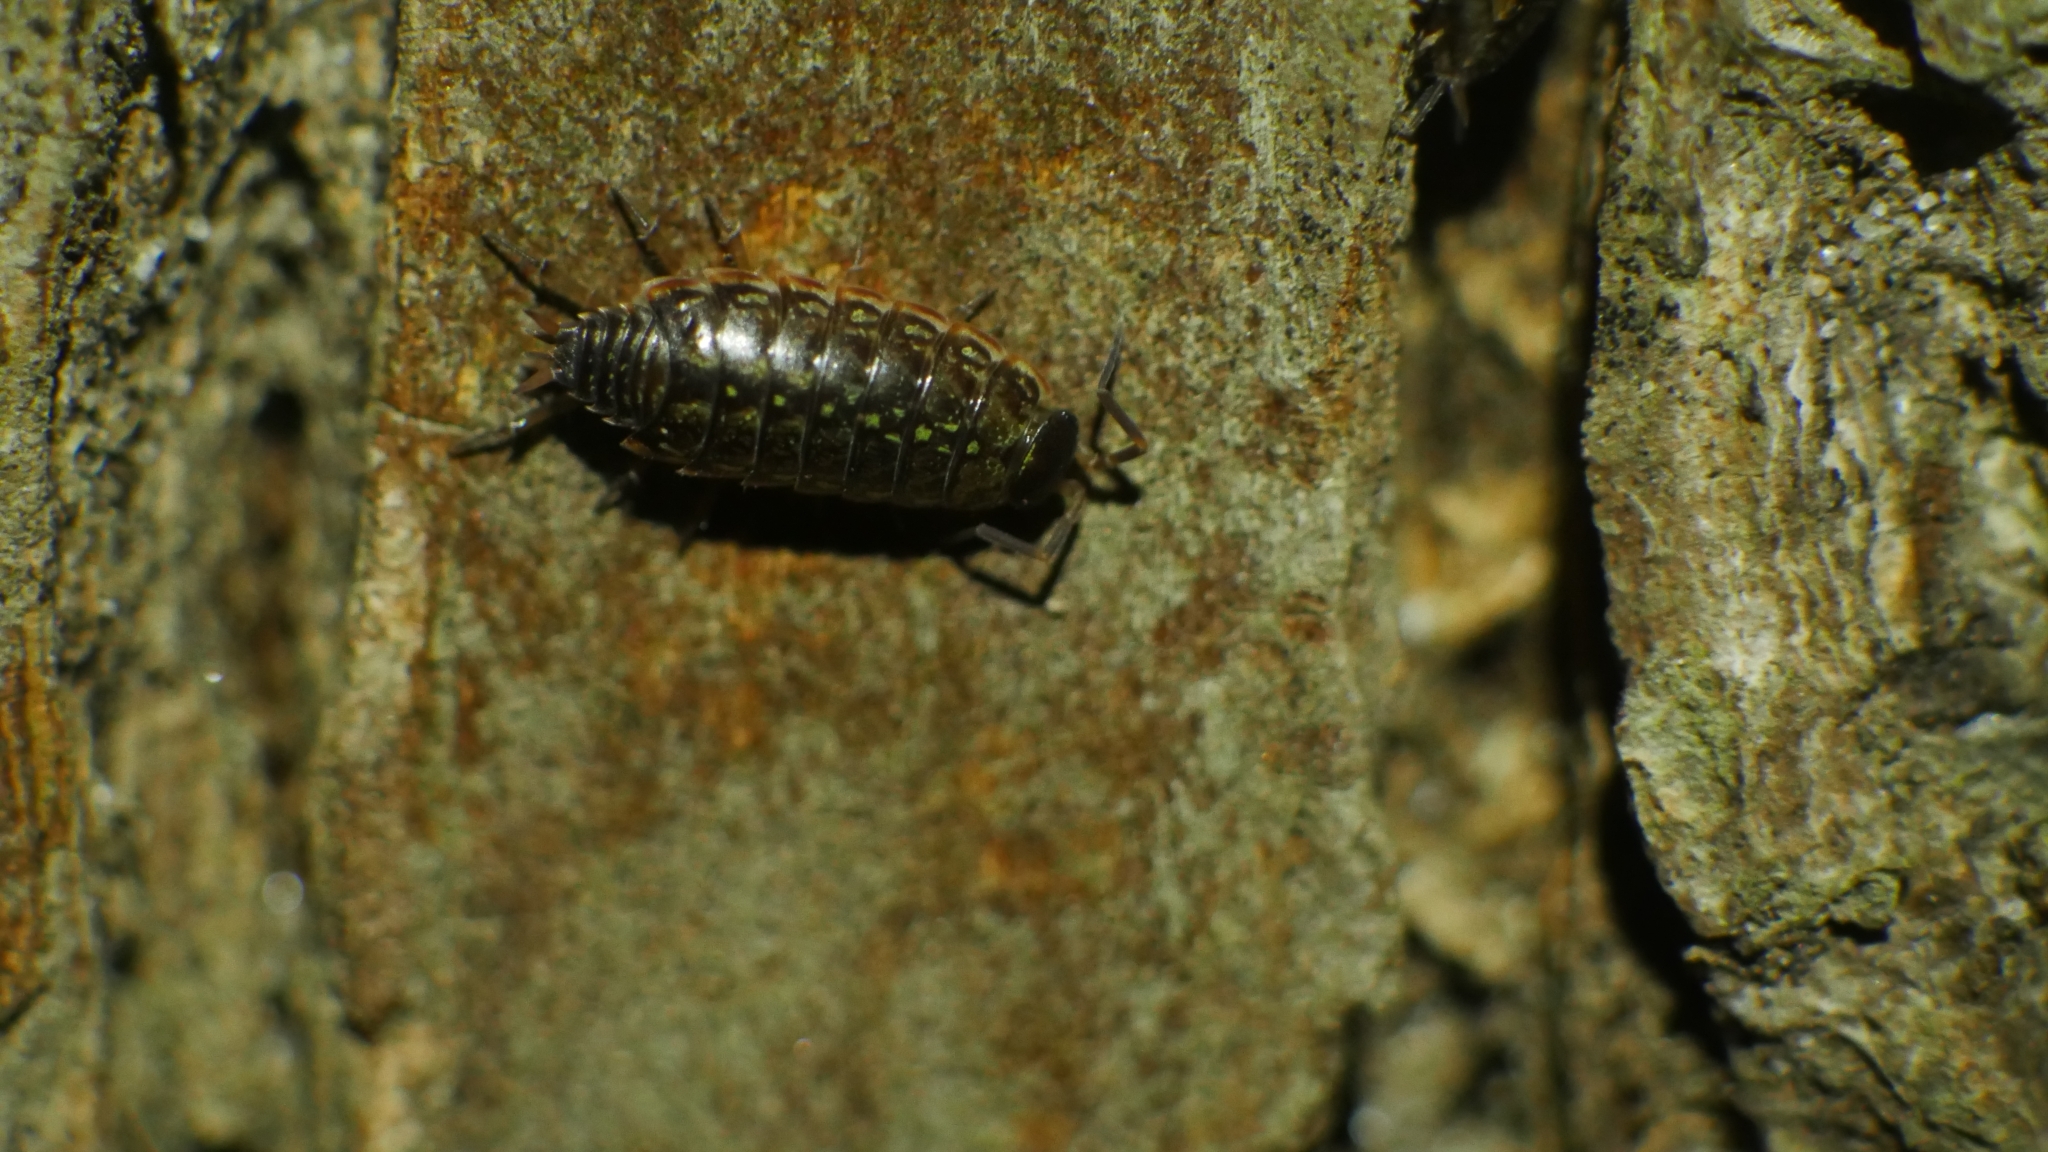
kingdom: Animalia
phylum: Arthropoda
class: Malacostraca
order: Isopoda
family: Philosciidae
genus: Philoscia
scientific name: Philoscia muscorum
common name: Common striped woodlouse
